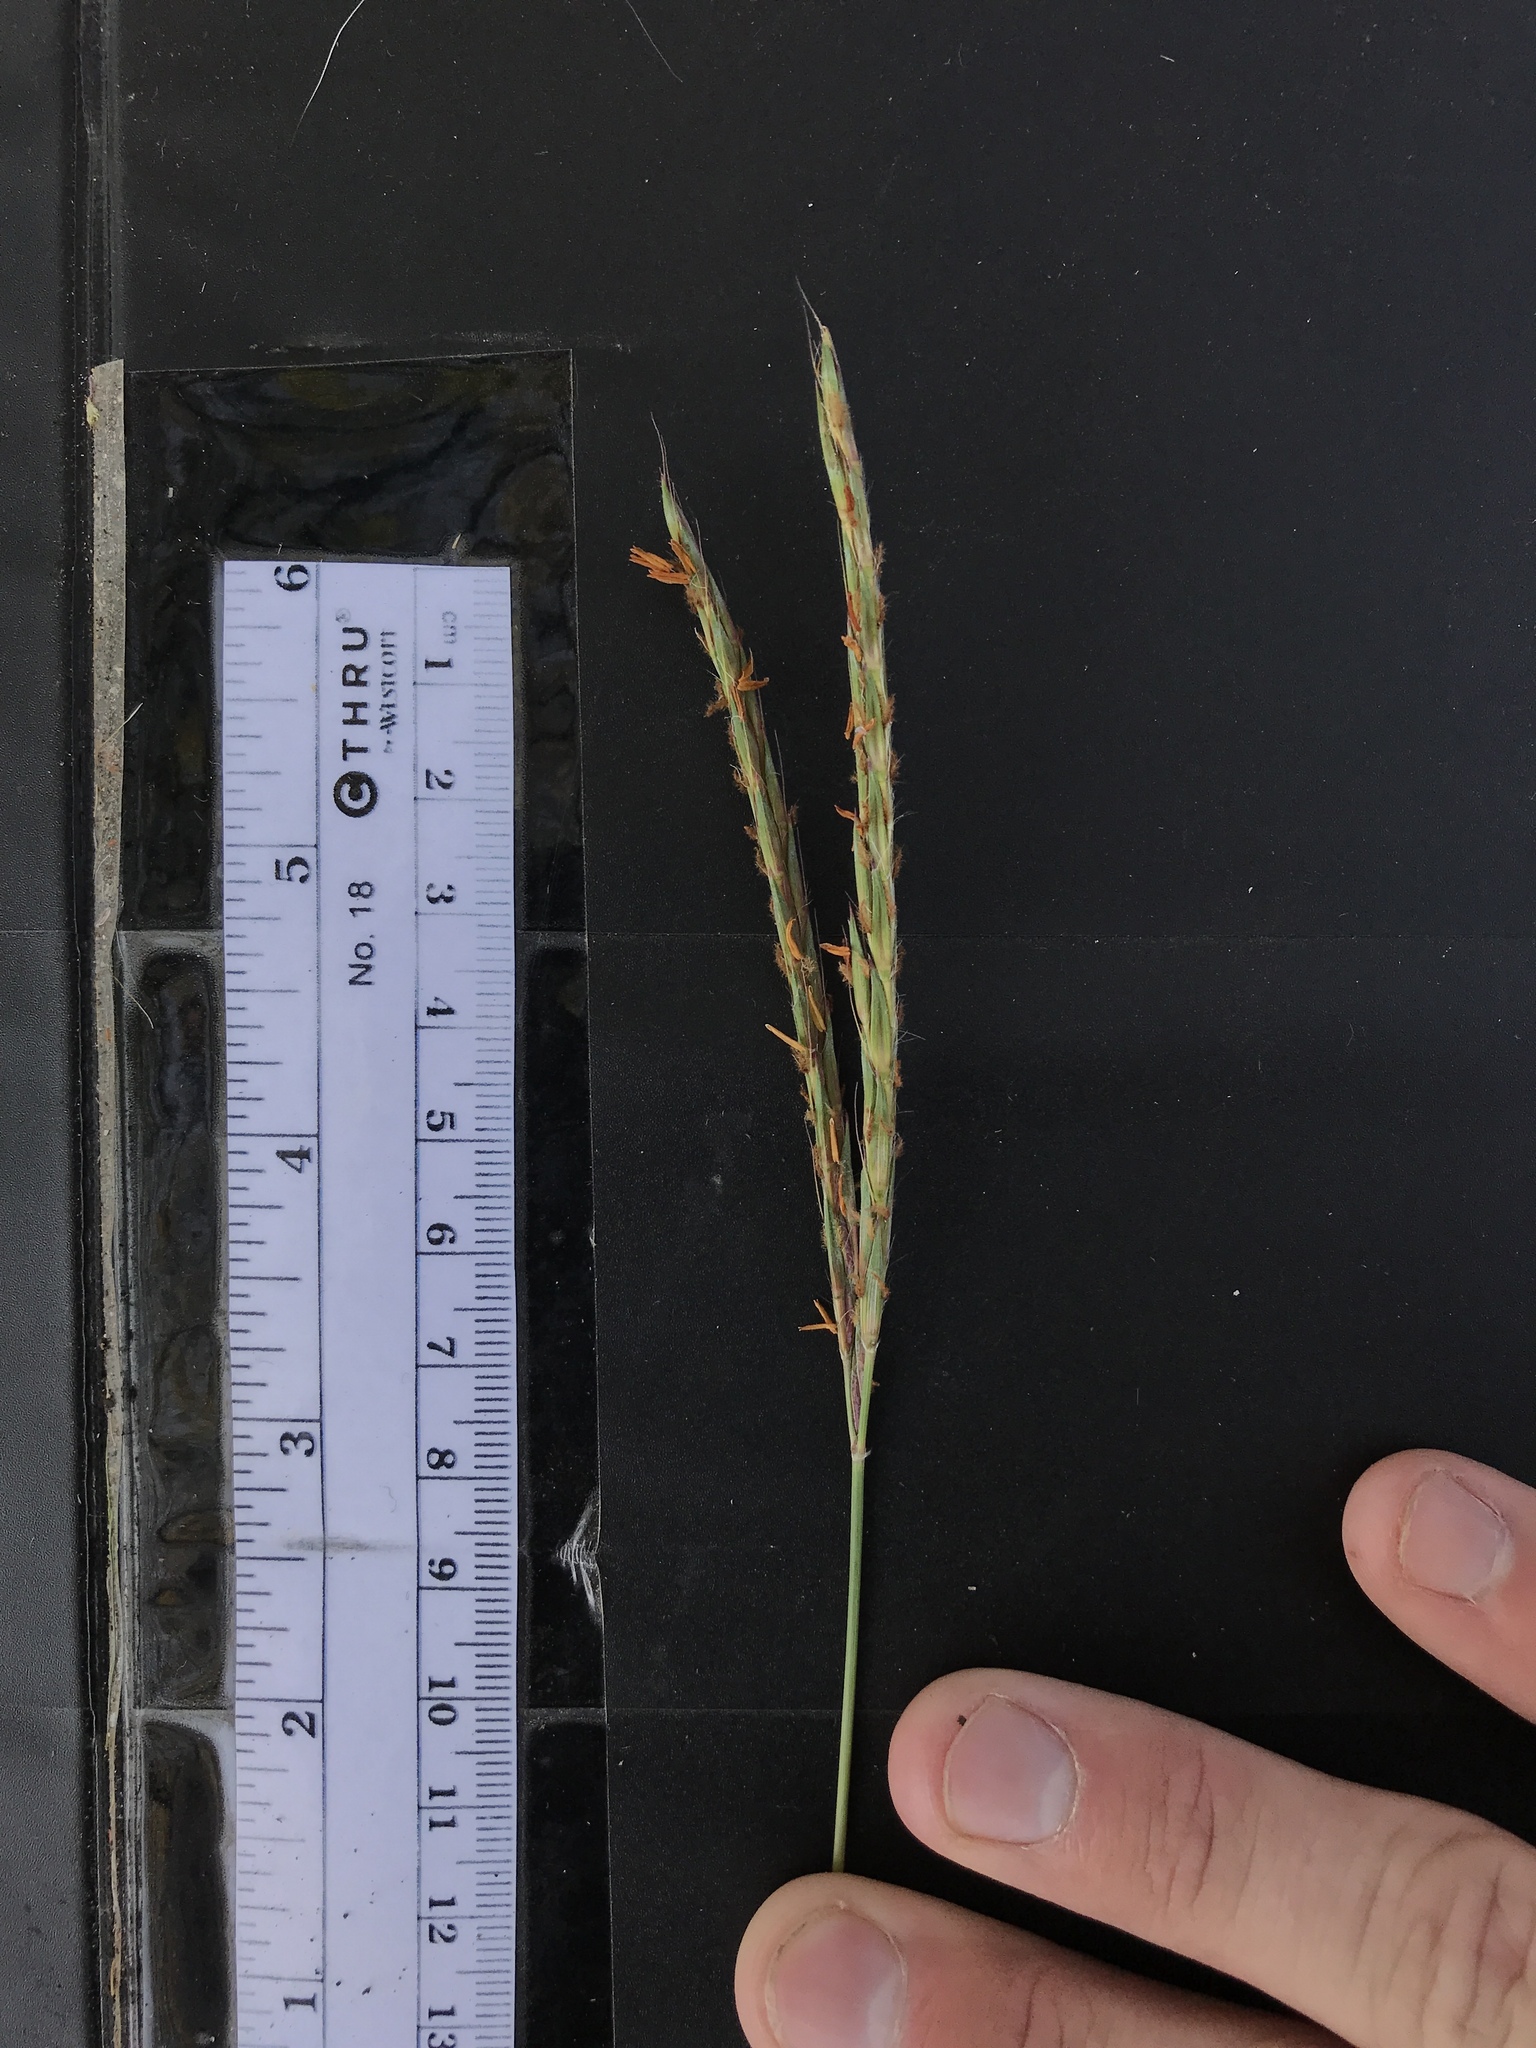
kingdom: Plantae
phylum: Tracheophyta
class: Liliopsida
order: Poales
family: Poaceae
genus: Andropogon
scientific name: Andropogon gerardi
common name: Big bluestem
